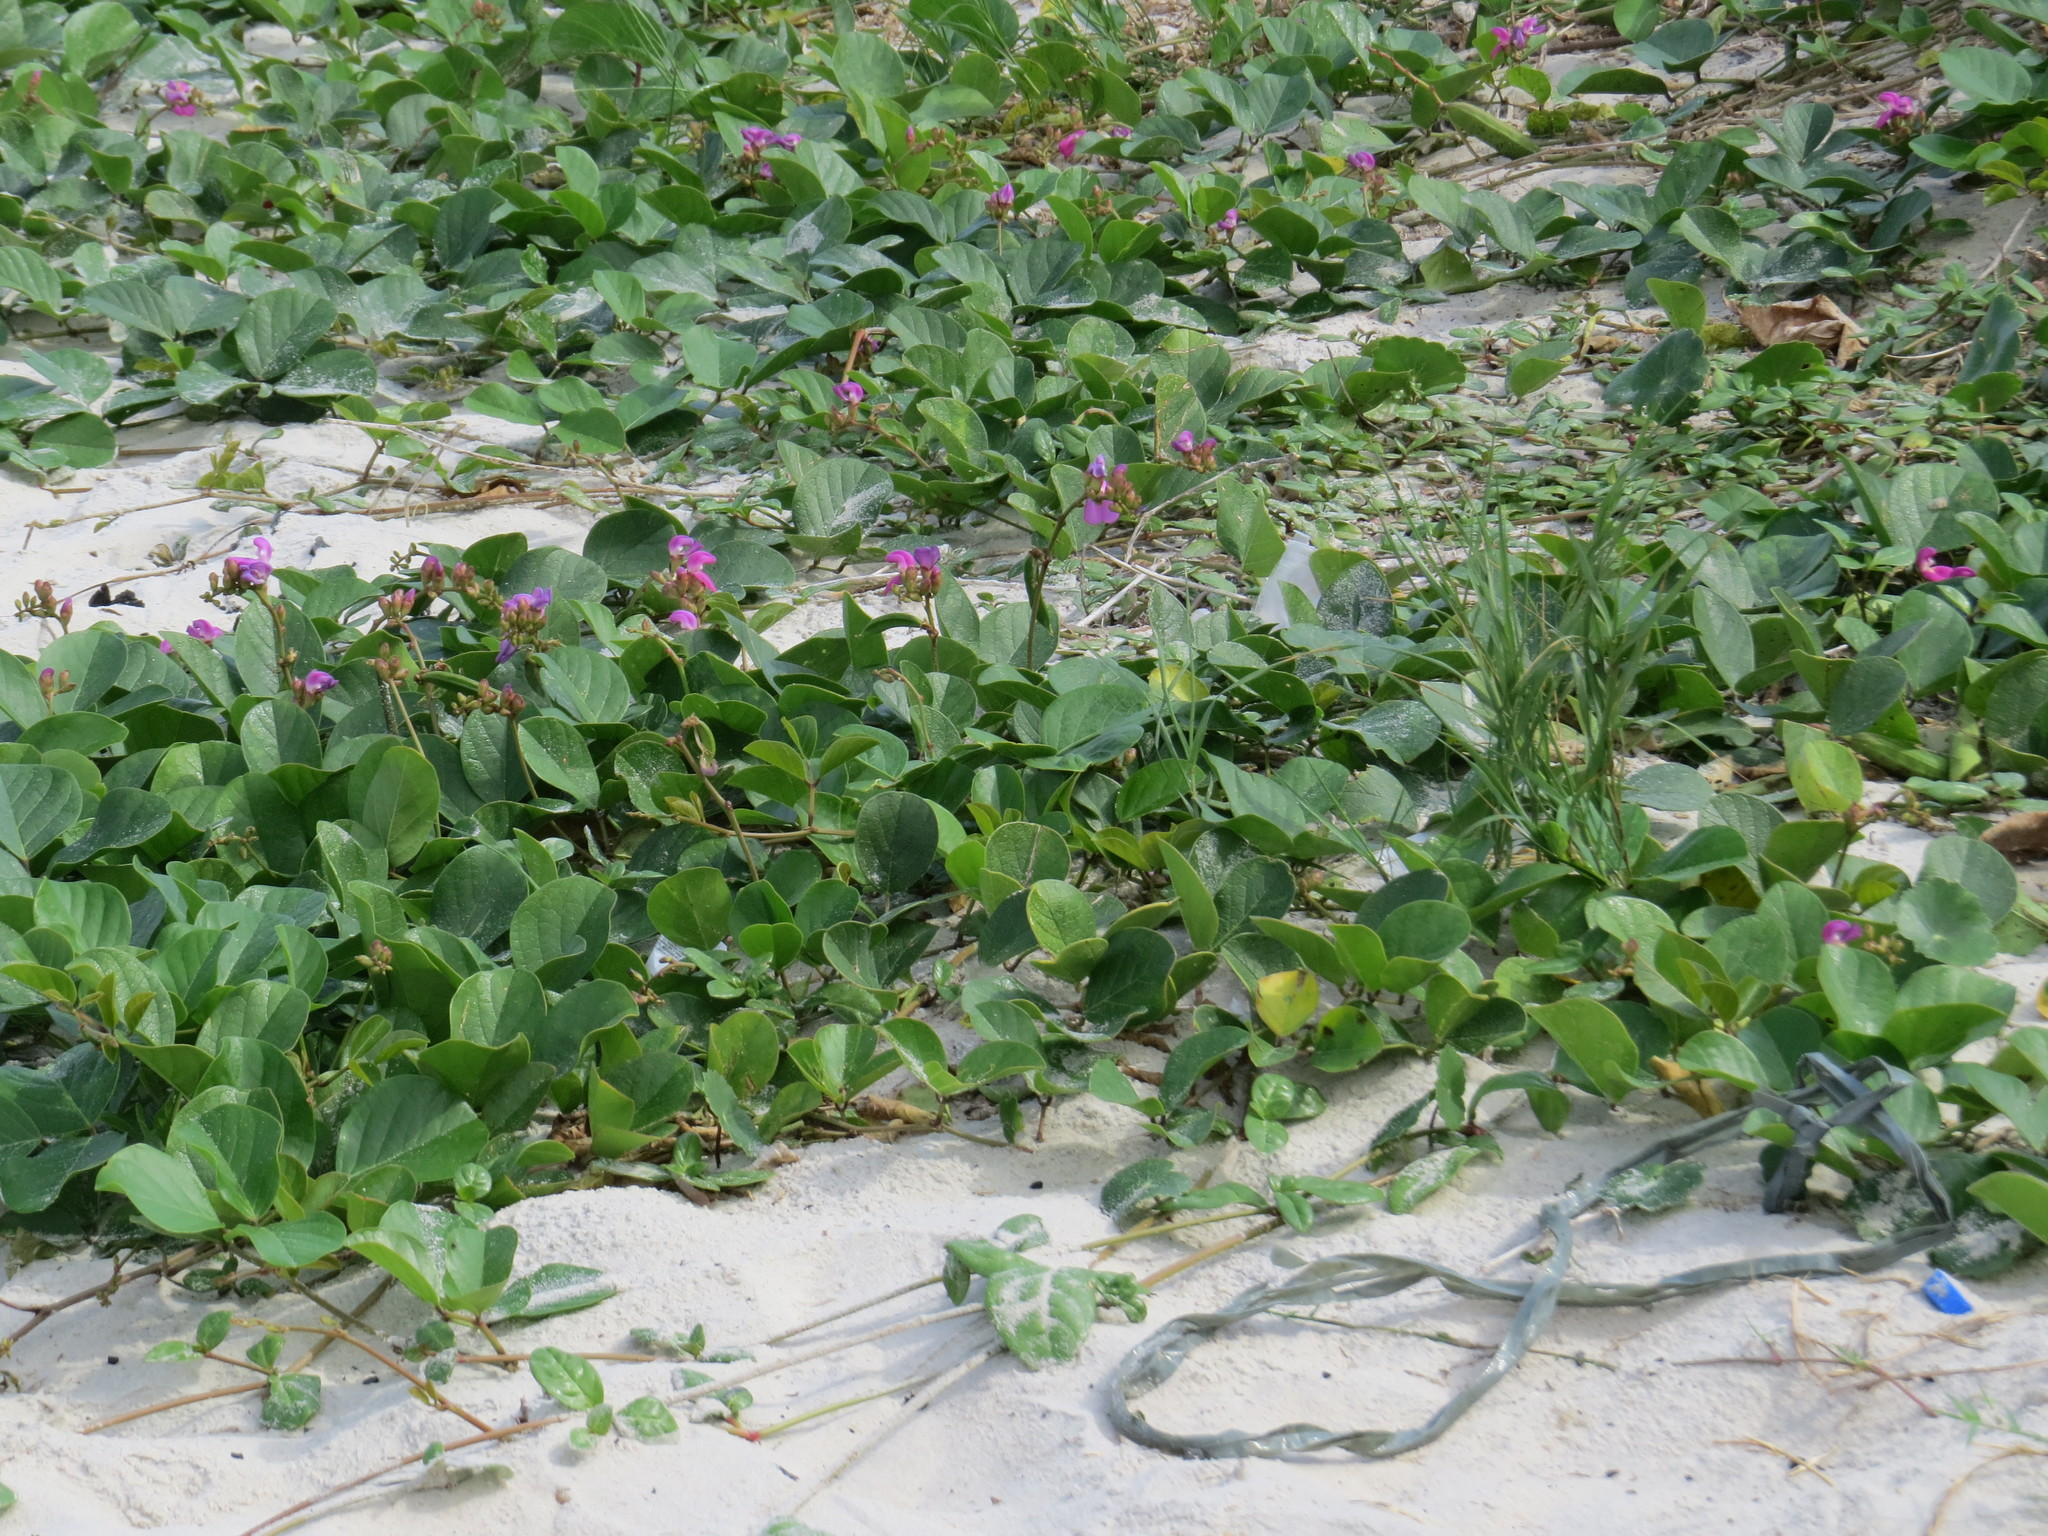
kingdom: Plantae
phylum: Tracheophyta
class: Magnoliopsida
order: Fabales
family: Fabaceae
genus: Canavalia
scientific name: Canavalia rosea
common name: Beach-bean
